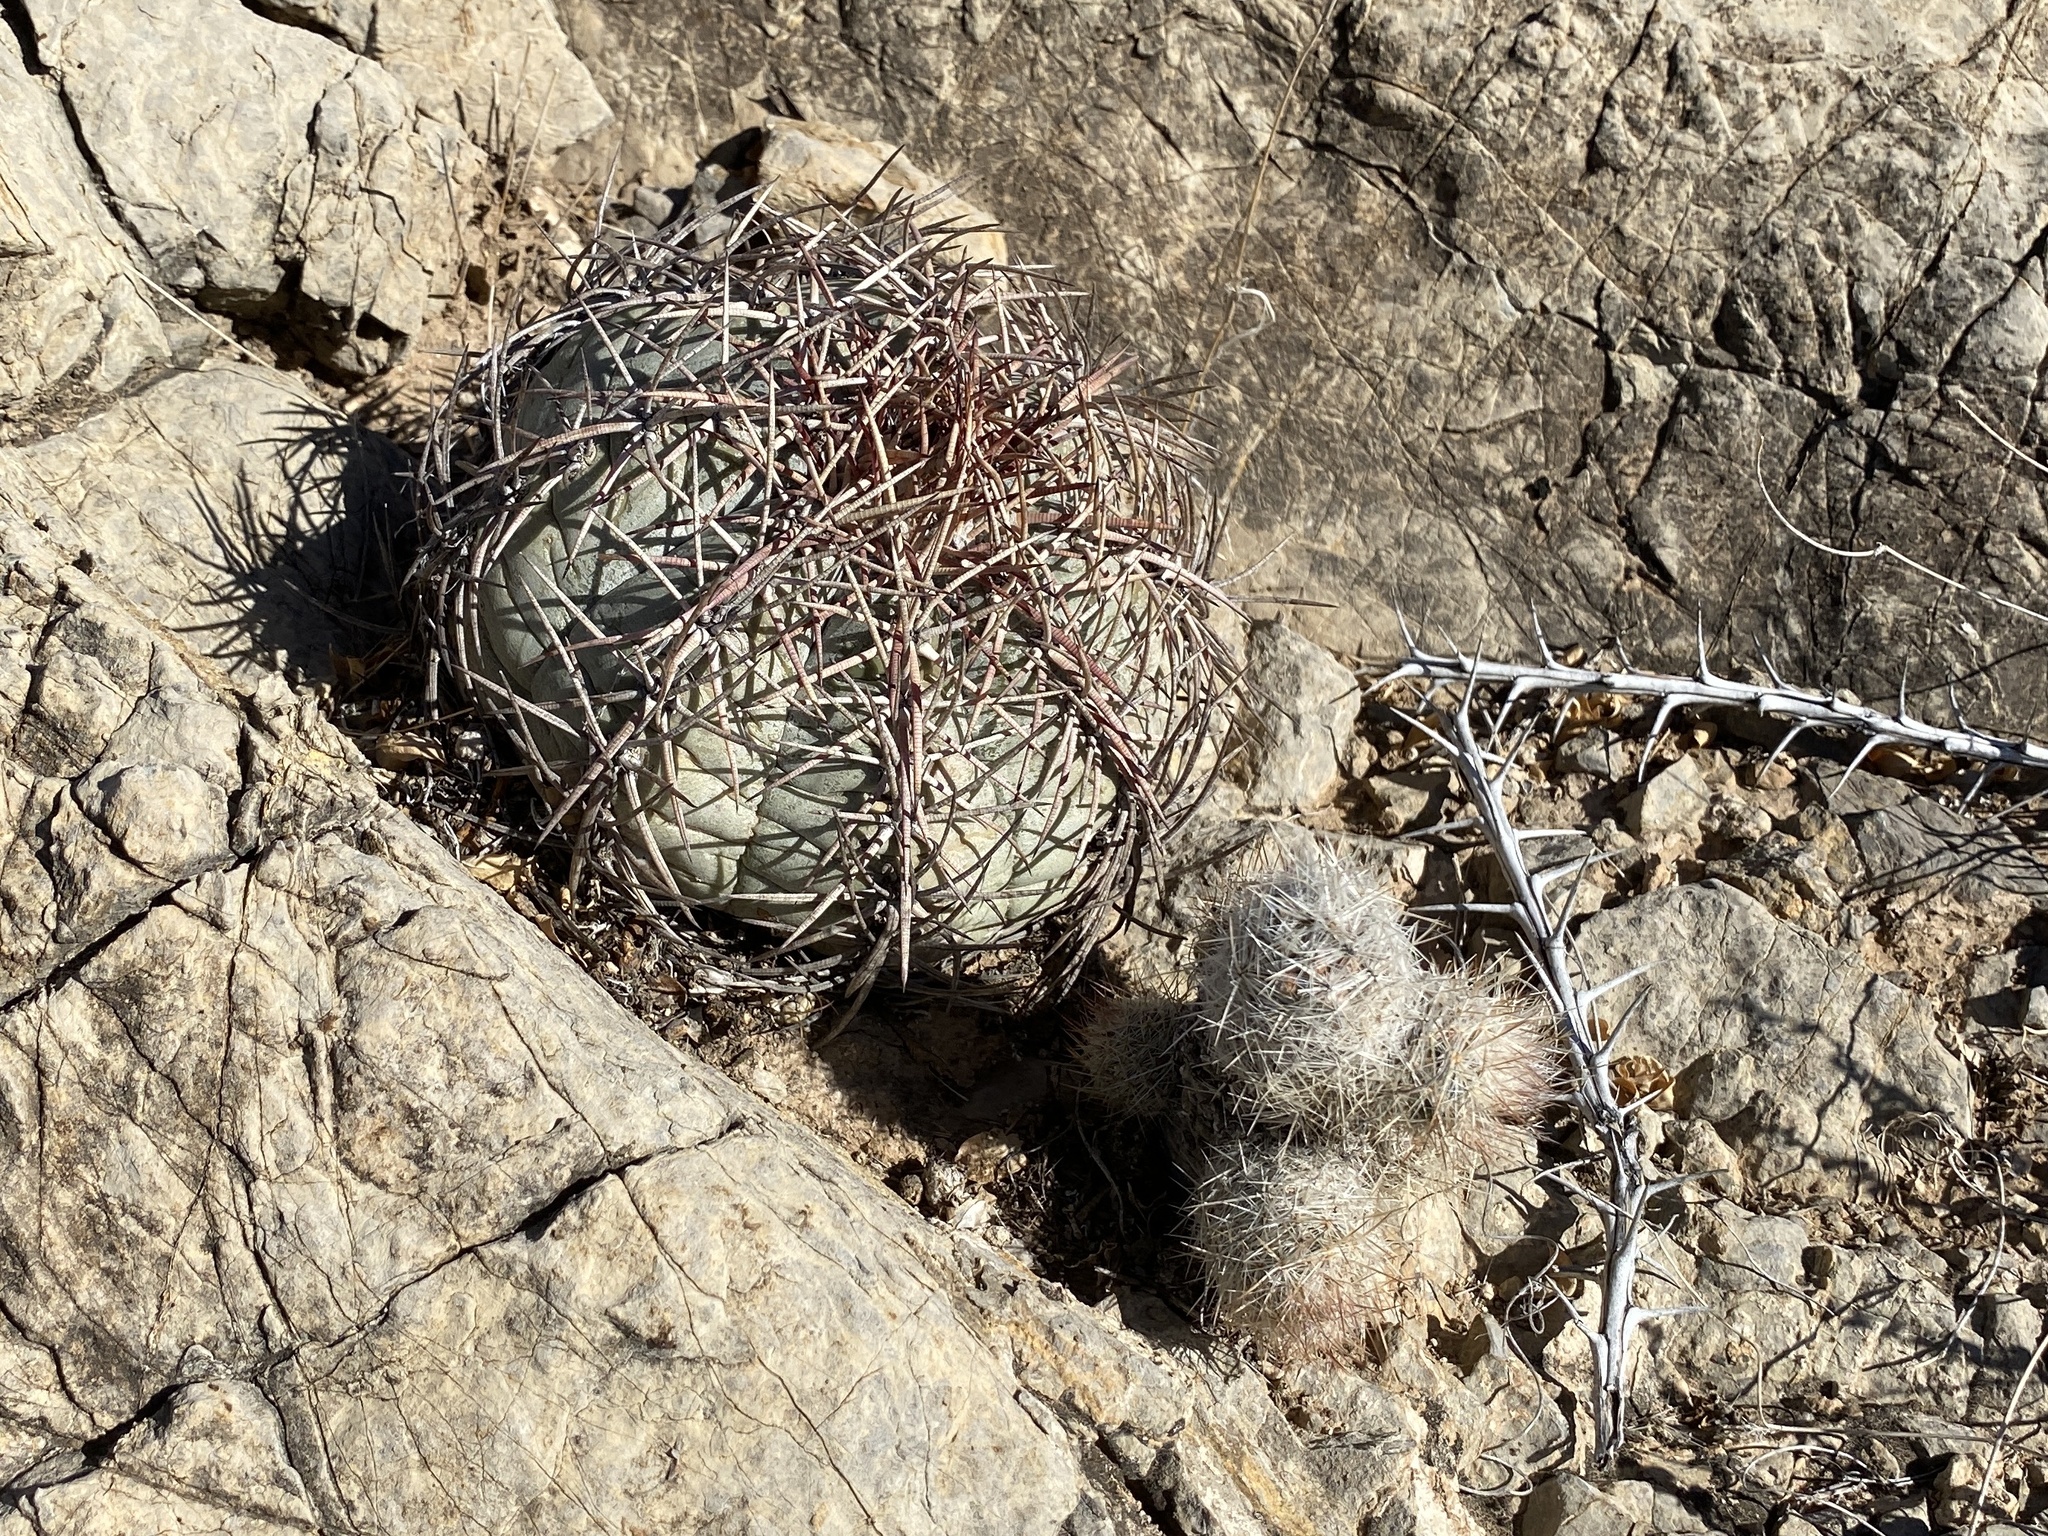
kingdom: Plantae
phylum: Tracheophyta
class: Magnoliopsida
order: Caryophyllales
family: Cactaceae
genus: Echinocactus
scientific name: Echinocactus horizonthalonius
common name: Devilshead
